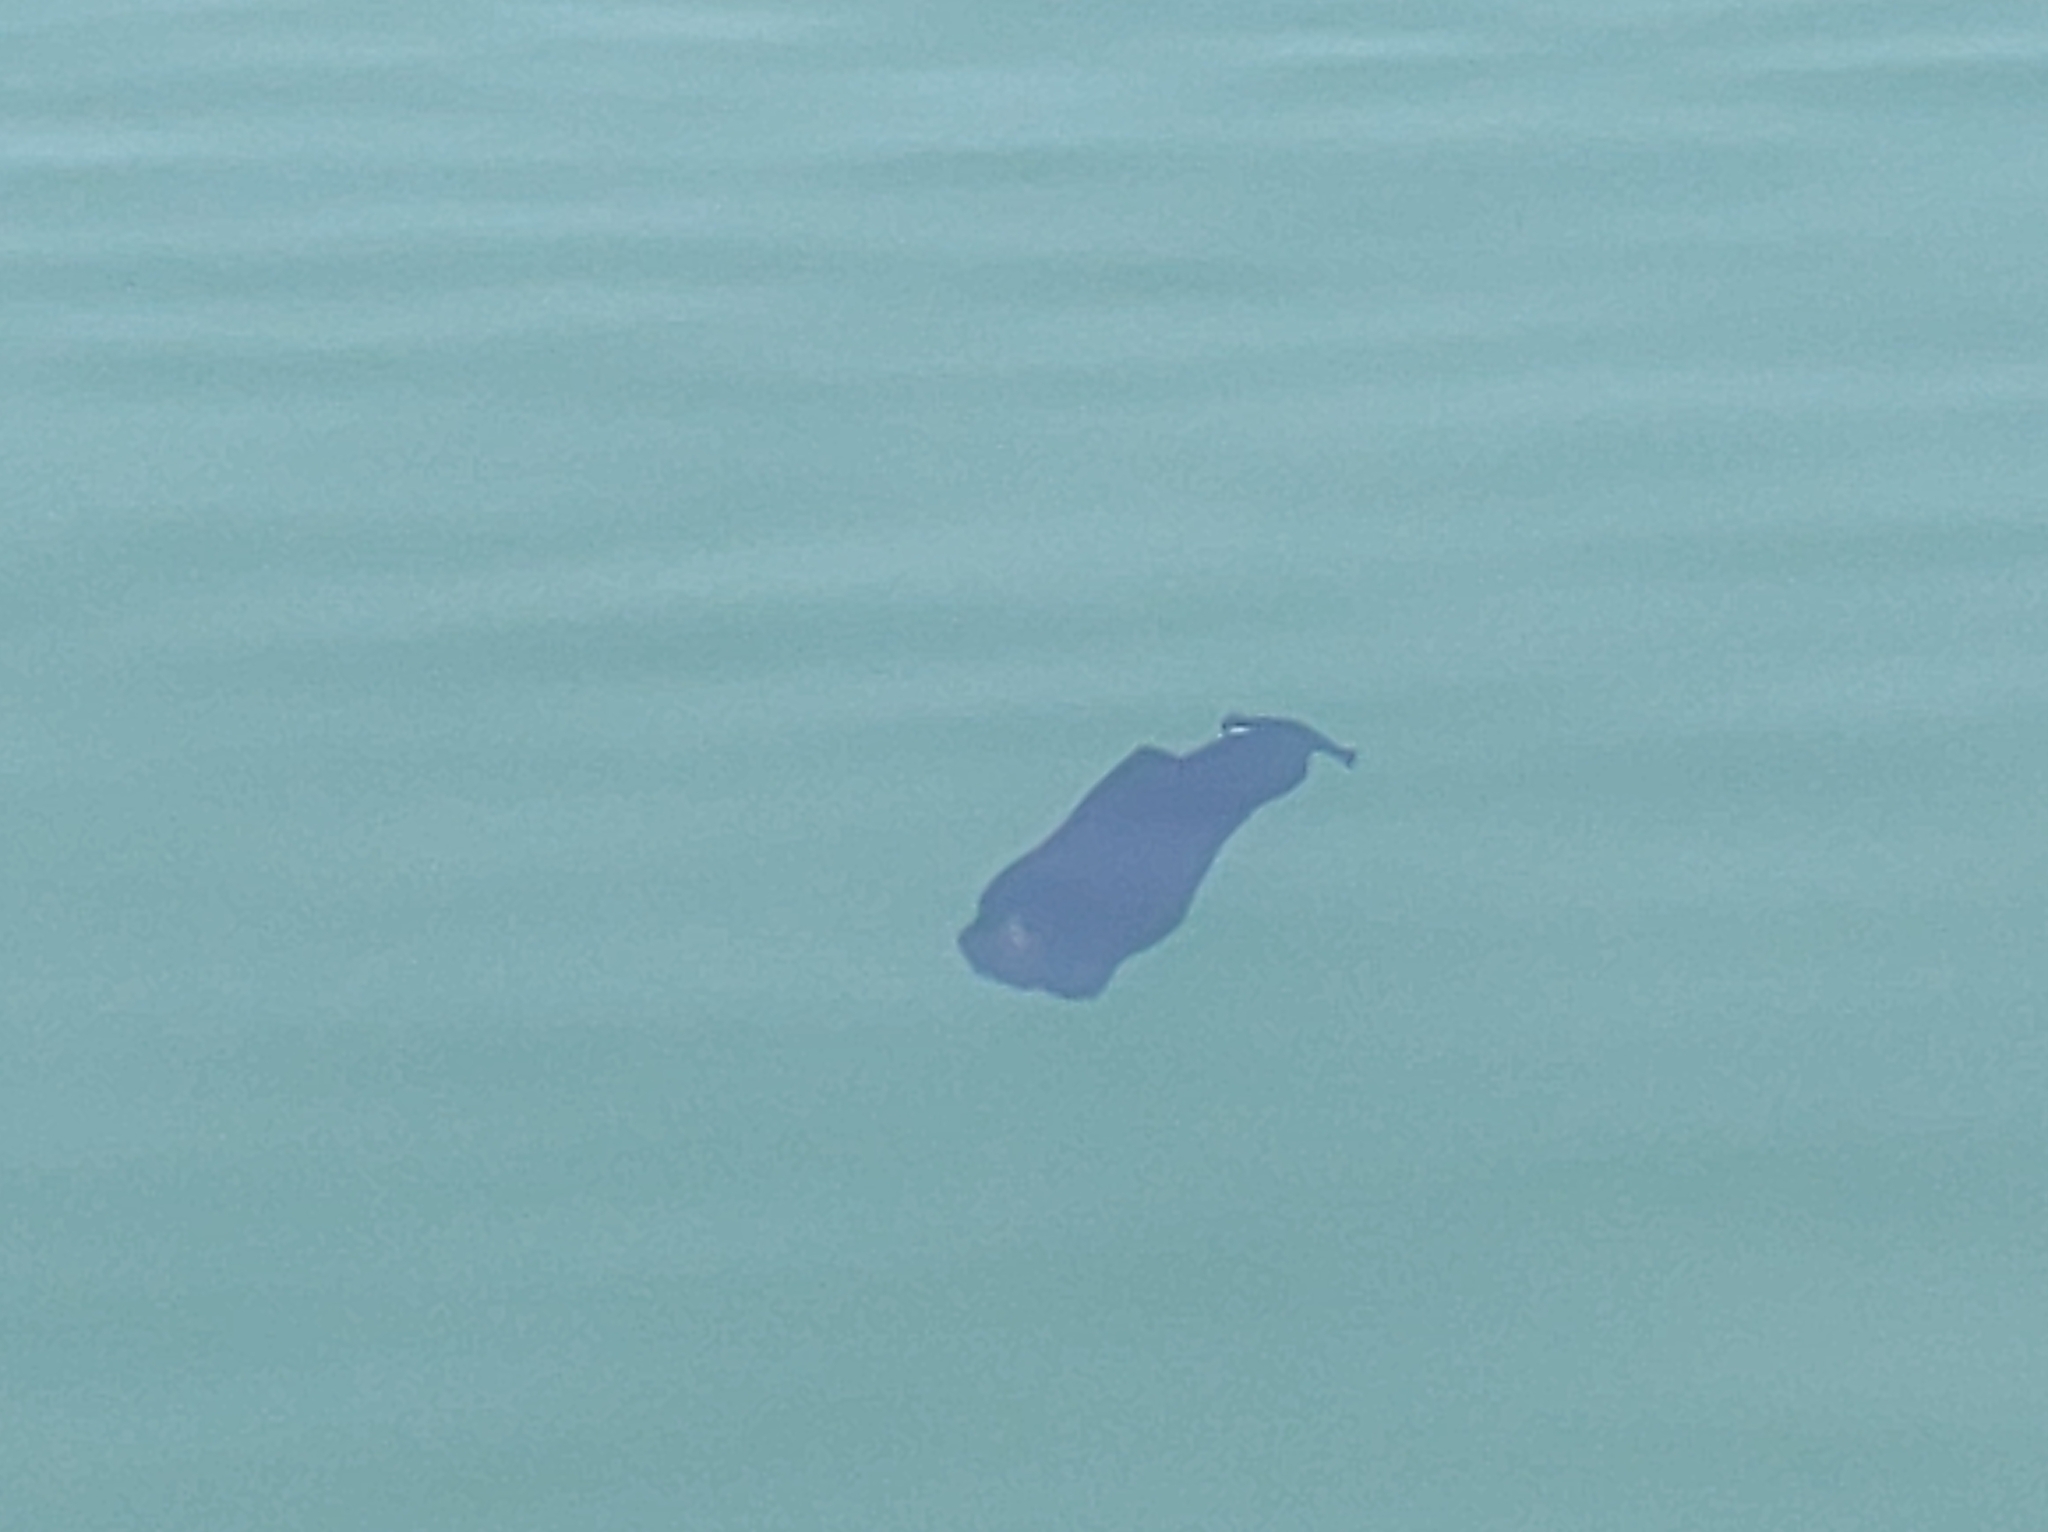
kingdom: Animalia
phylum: Mollusca
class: Gastropoda
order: Aplysiida
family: Aplysiidae
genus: Aplysia
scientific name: Aplysia fasciata
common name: Banded sea hare
